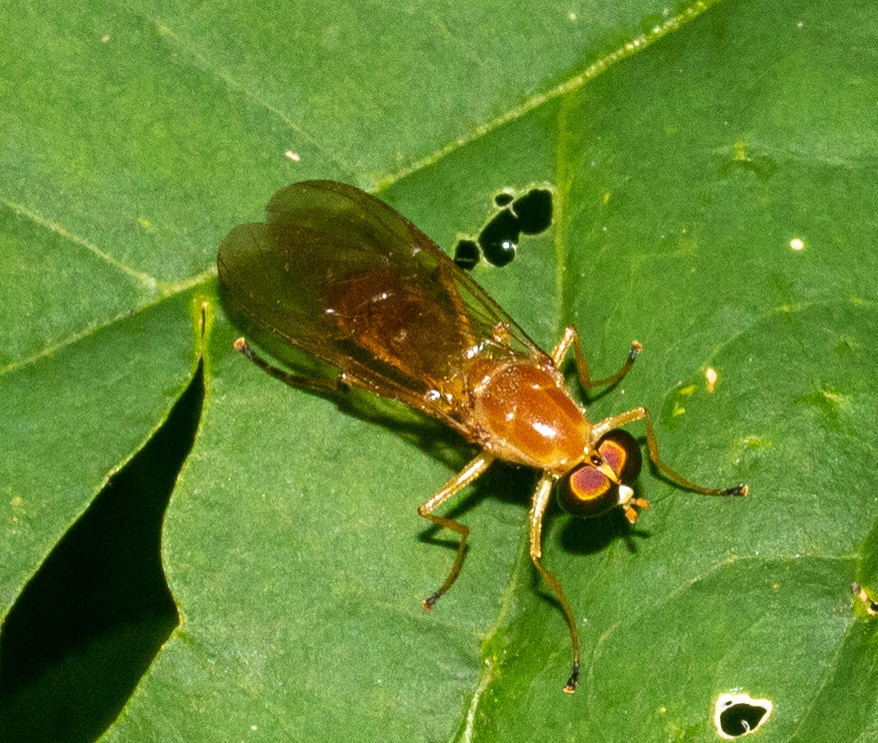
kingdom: Animalia
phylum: Arthropoda
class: Insecta
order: Diptera
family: Stratiomyidae
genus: Ptecticus
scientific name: Ptecticus trivittatus
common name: Compost fly
